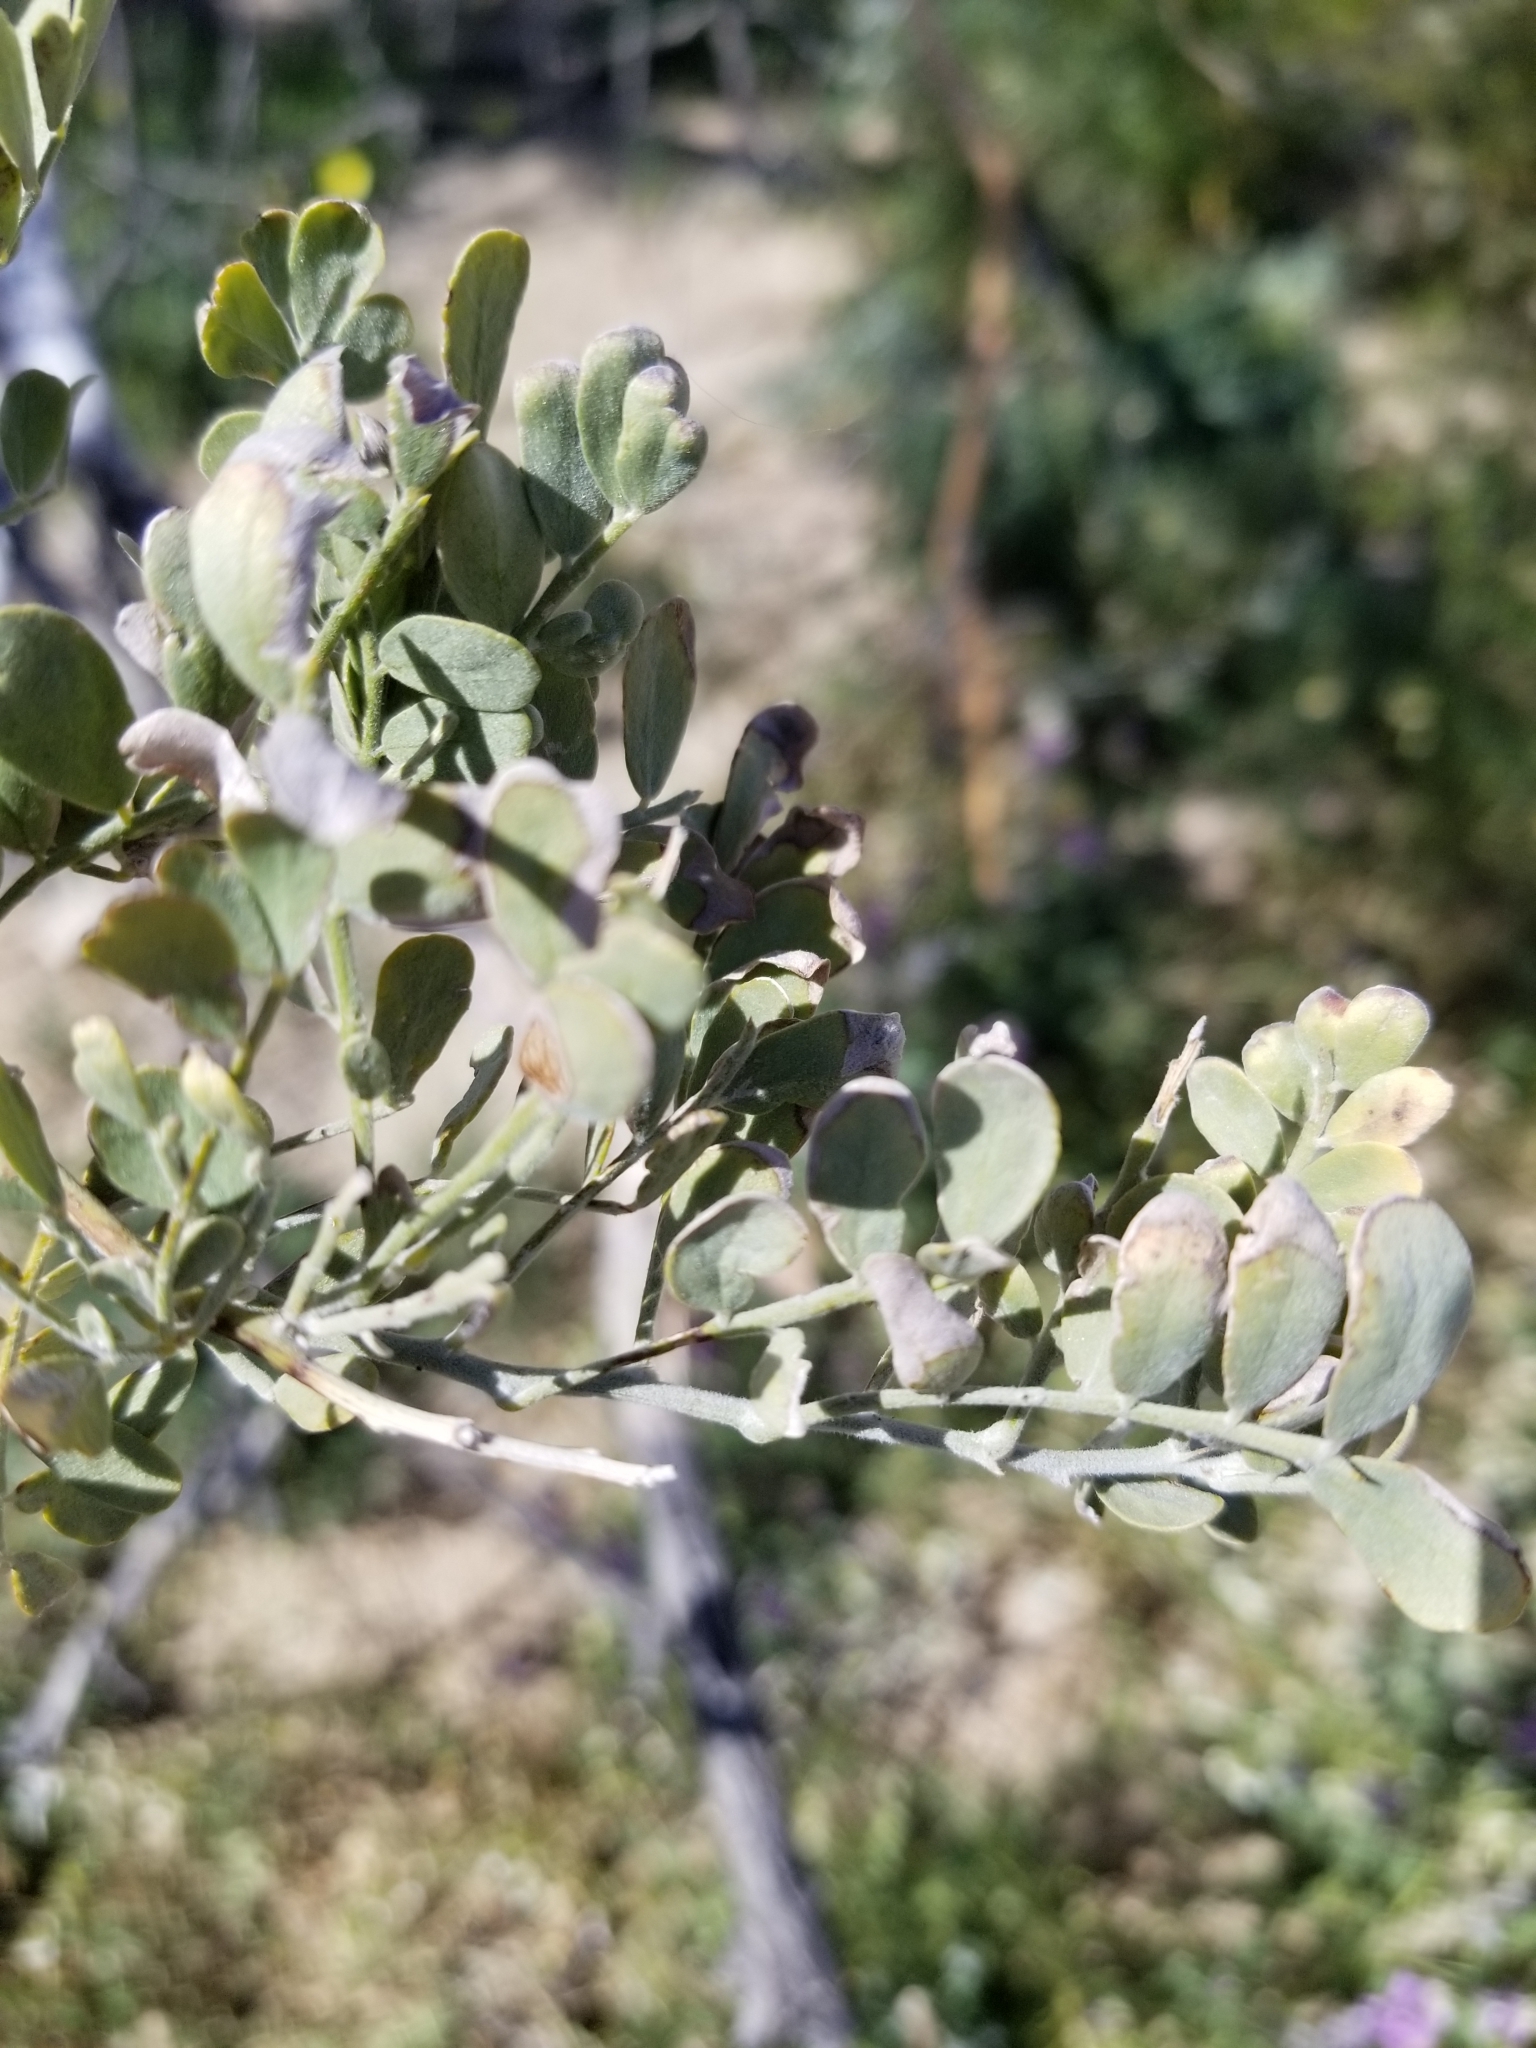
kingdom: Plantae
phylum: Tracheophyta
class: Magnoliopsida
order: Fabales
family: Fabaceae
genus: Olneya
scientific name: Olneya tesota
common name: Desert ironwood
